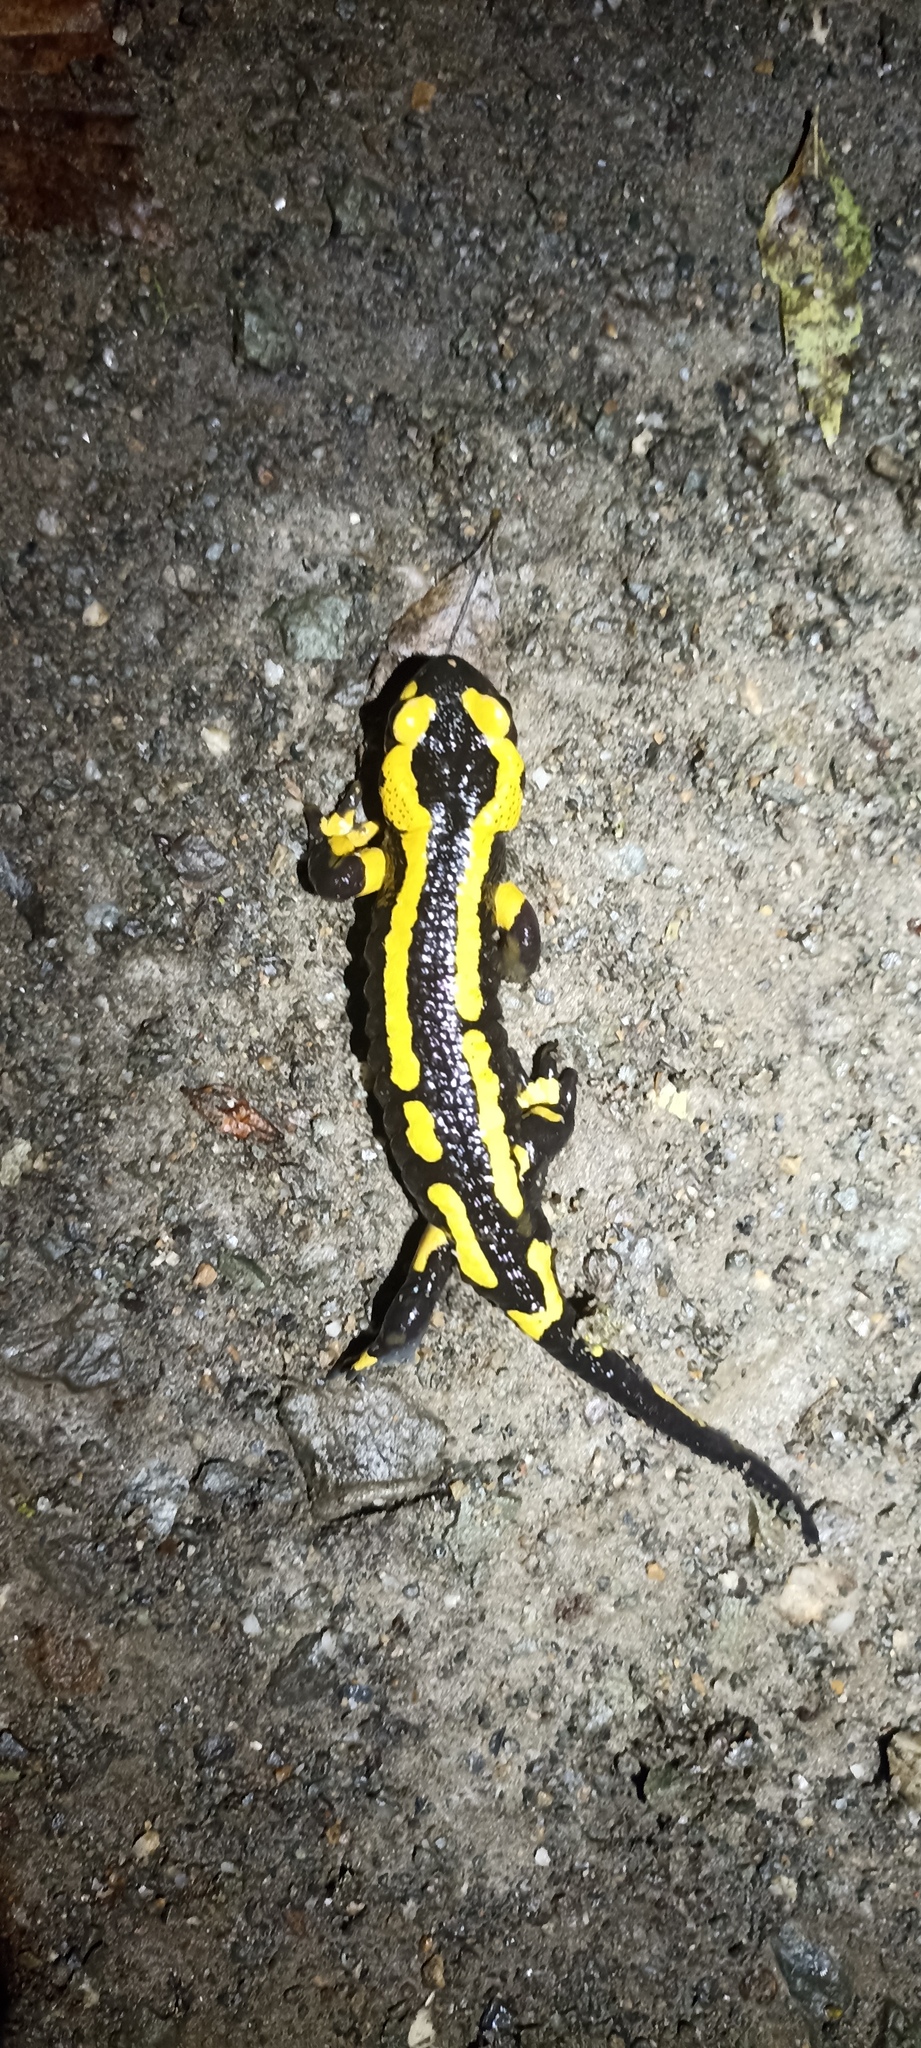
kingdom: Animalia
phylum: Chordata
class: Amphibia
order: Caudata
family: Salamandridae
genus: Salamandra
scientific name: Salamandra salamandra
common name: Fire salamander
